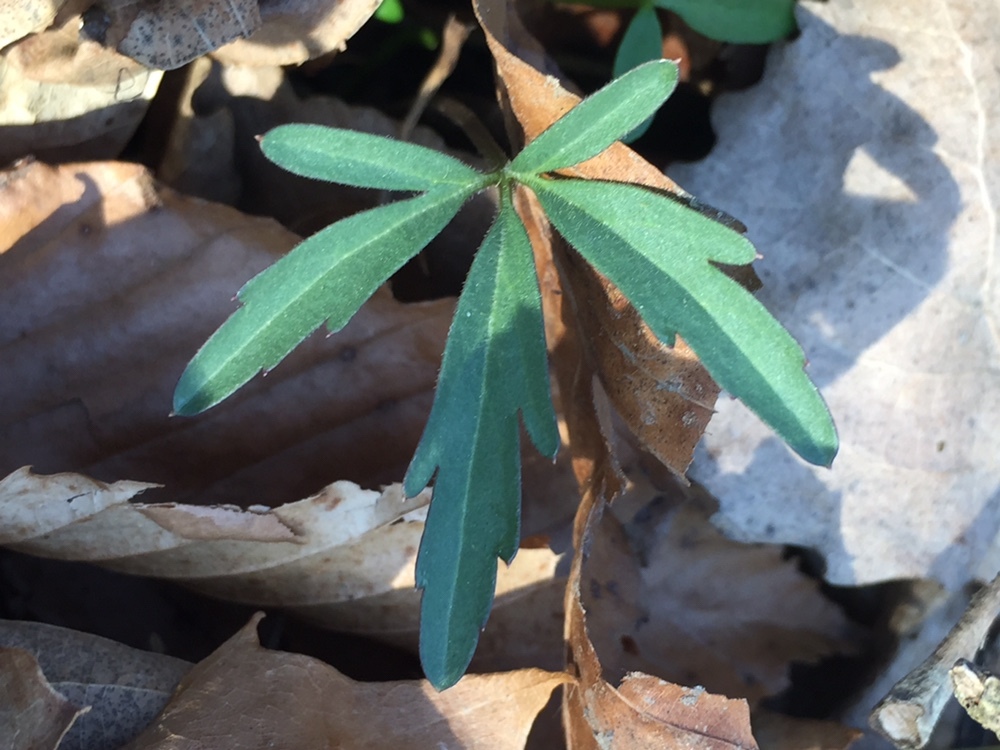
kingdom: Plantae
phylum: Tracheophyta
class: Magnoliopsida
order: Brassicales
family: Brassicaceae
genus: Cardamine
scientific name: Cardamine concatenata
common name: Cut-leaf toothcup
